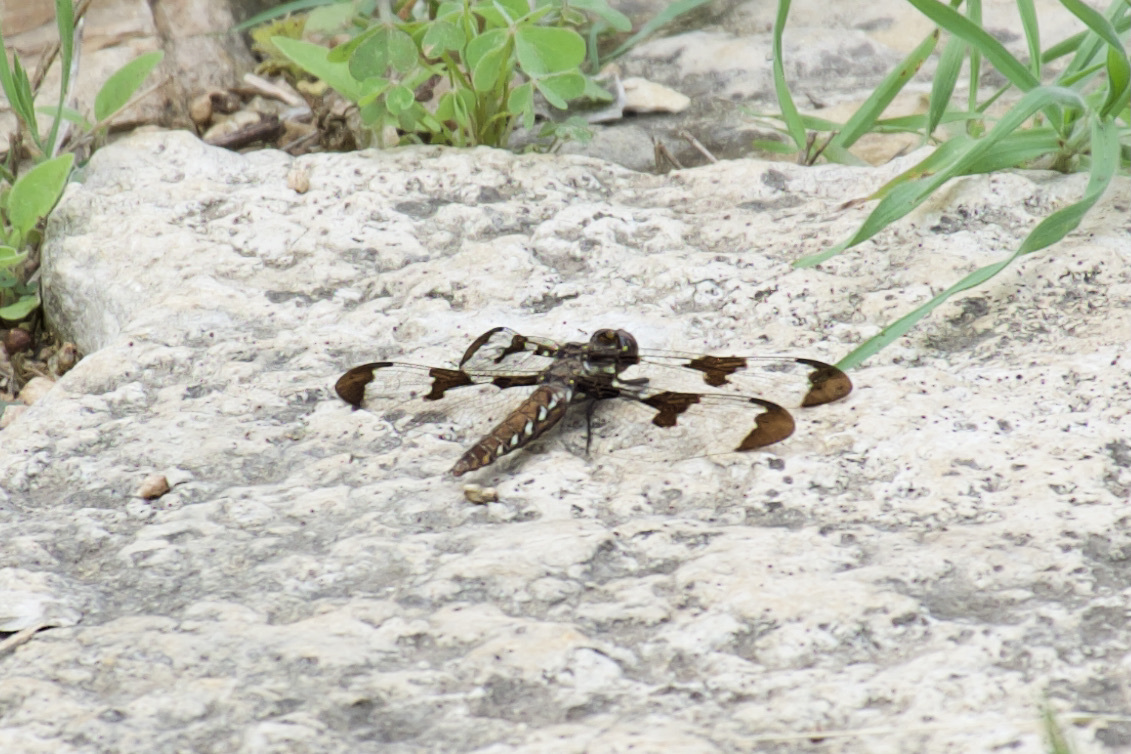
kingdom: Animalia
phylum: Arthropoda
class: Insecta
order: Odonata
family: Libellulidae
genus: Plathemis
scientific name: Plathemis lydia
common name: Common whitetail
